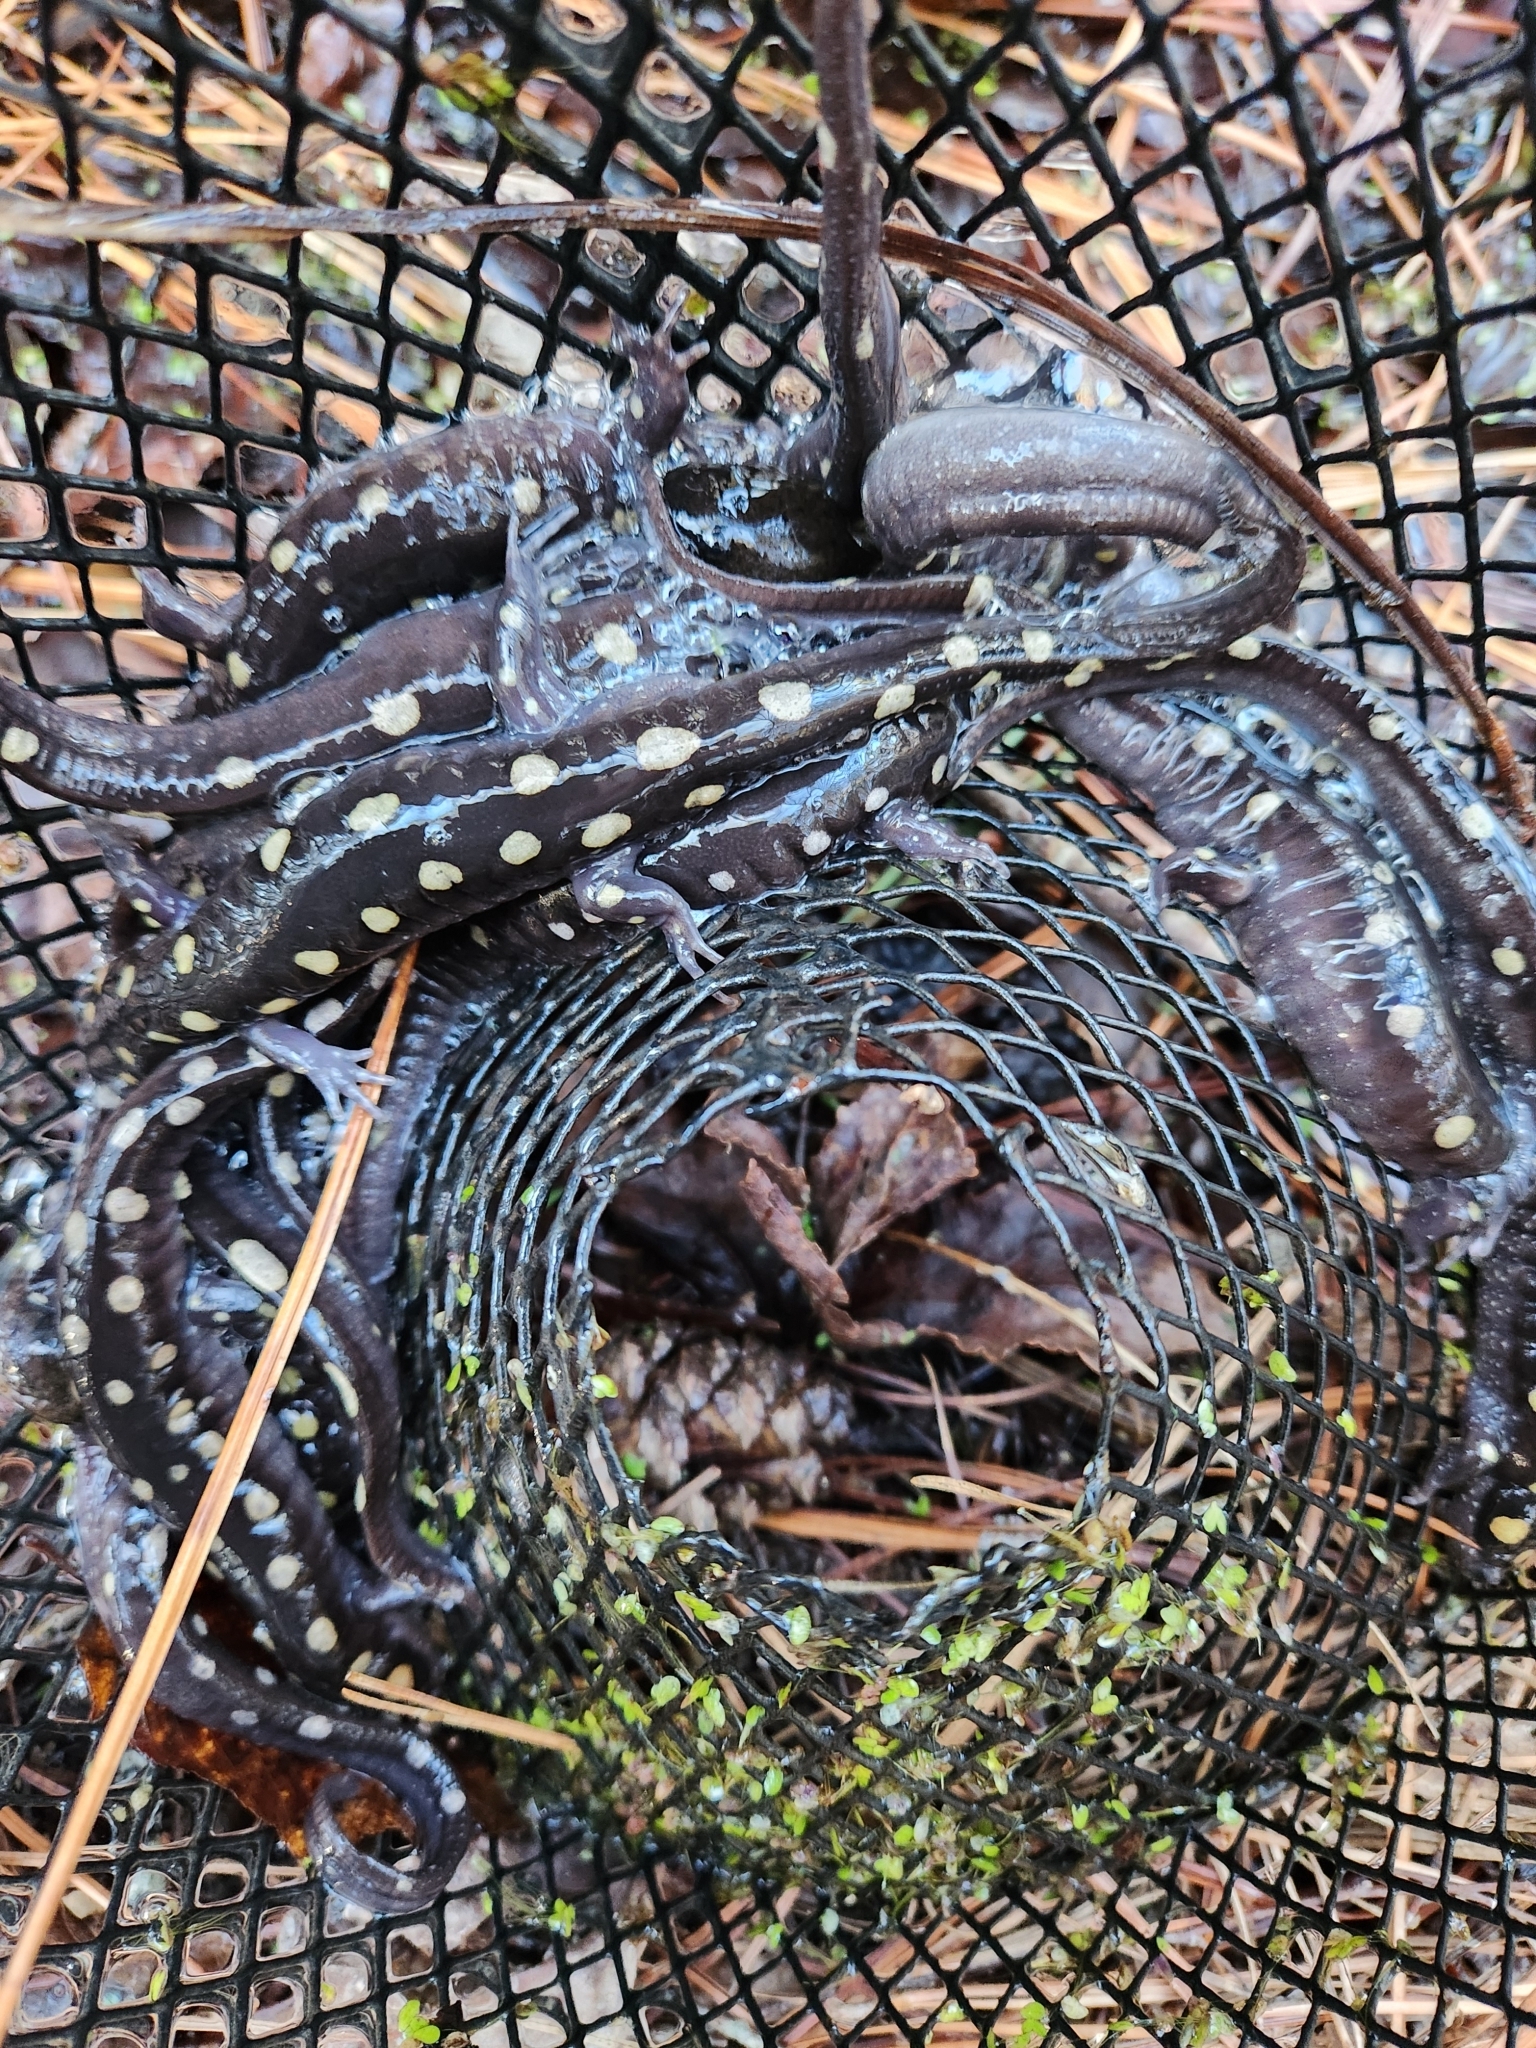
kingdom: Animalia
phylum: Chordata
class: Amphibia
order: Caudata
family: Ambystomatidae
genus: Ambystoma
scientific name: Ambystoma maculatum
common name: Spotted salamander
